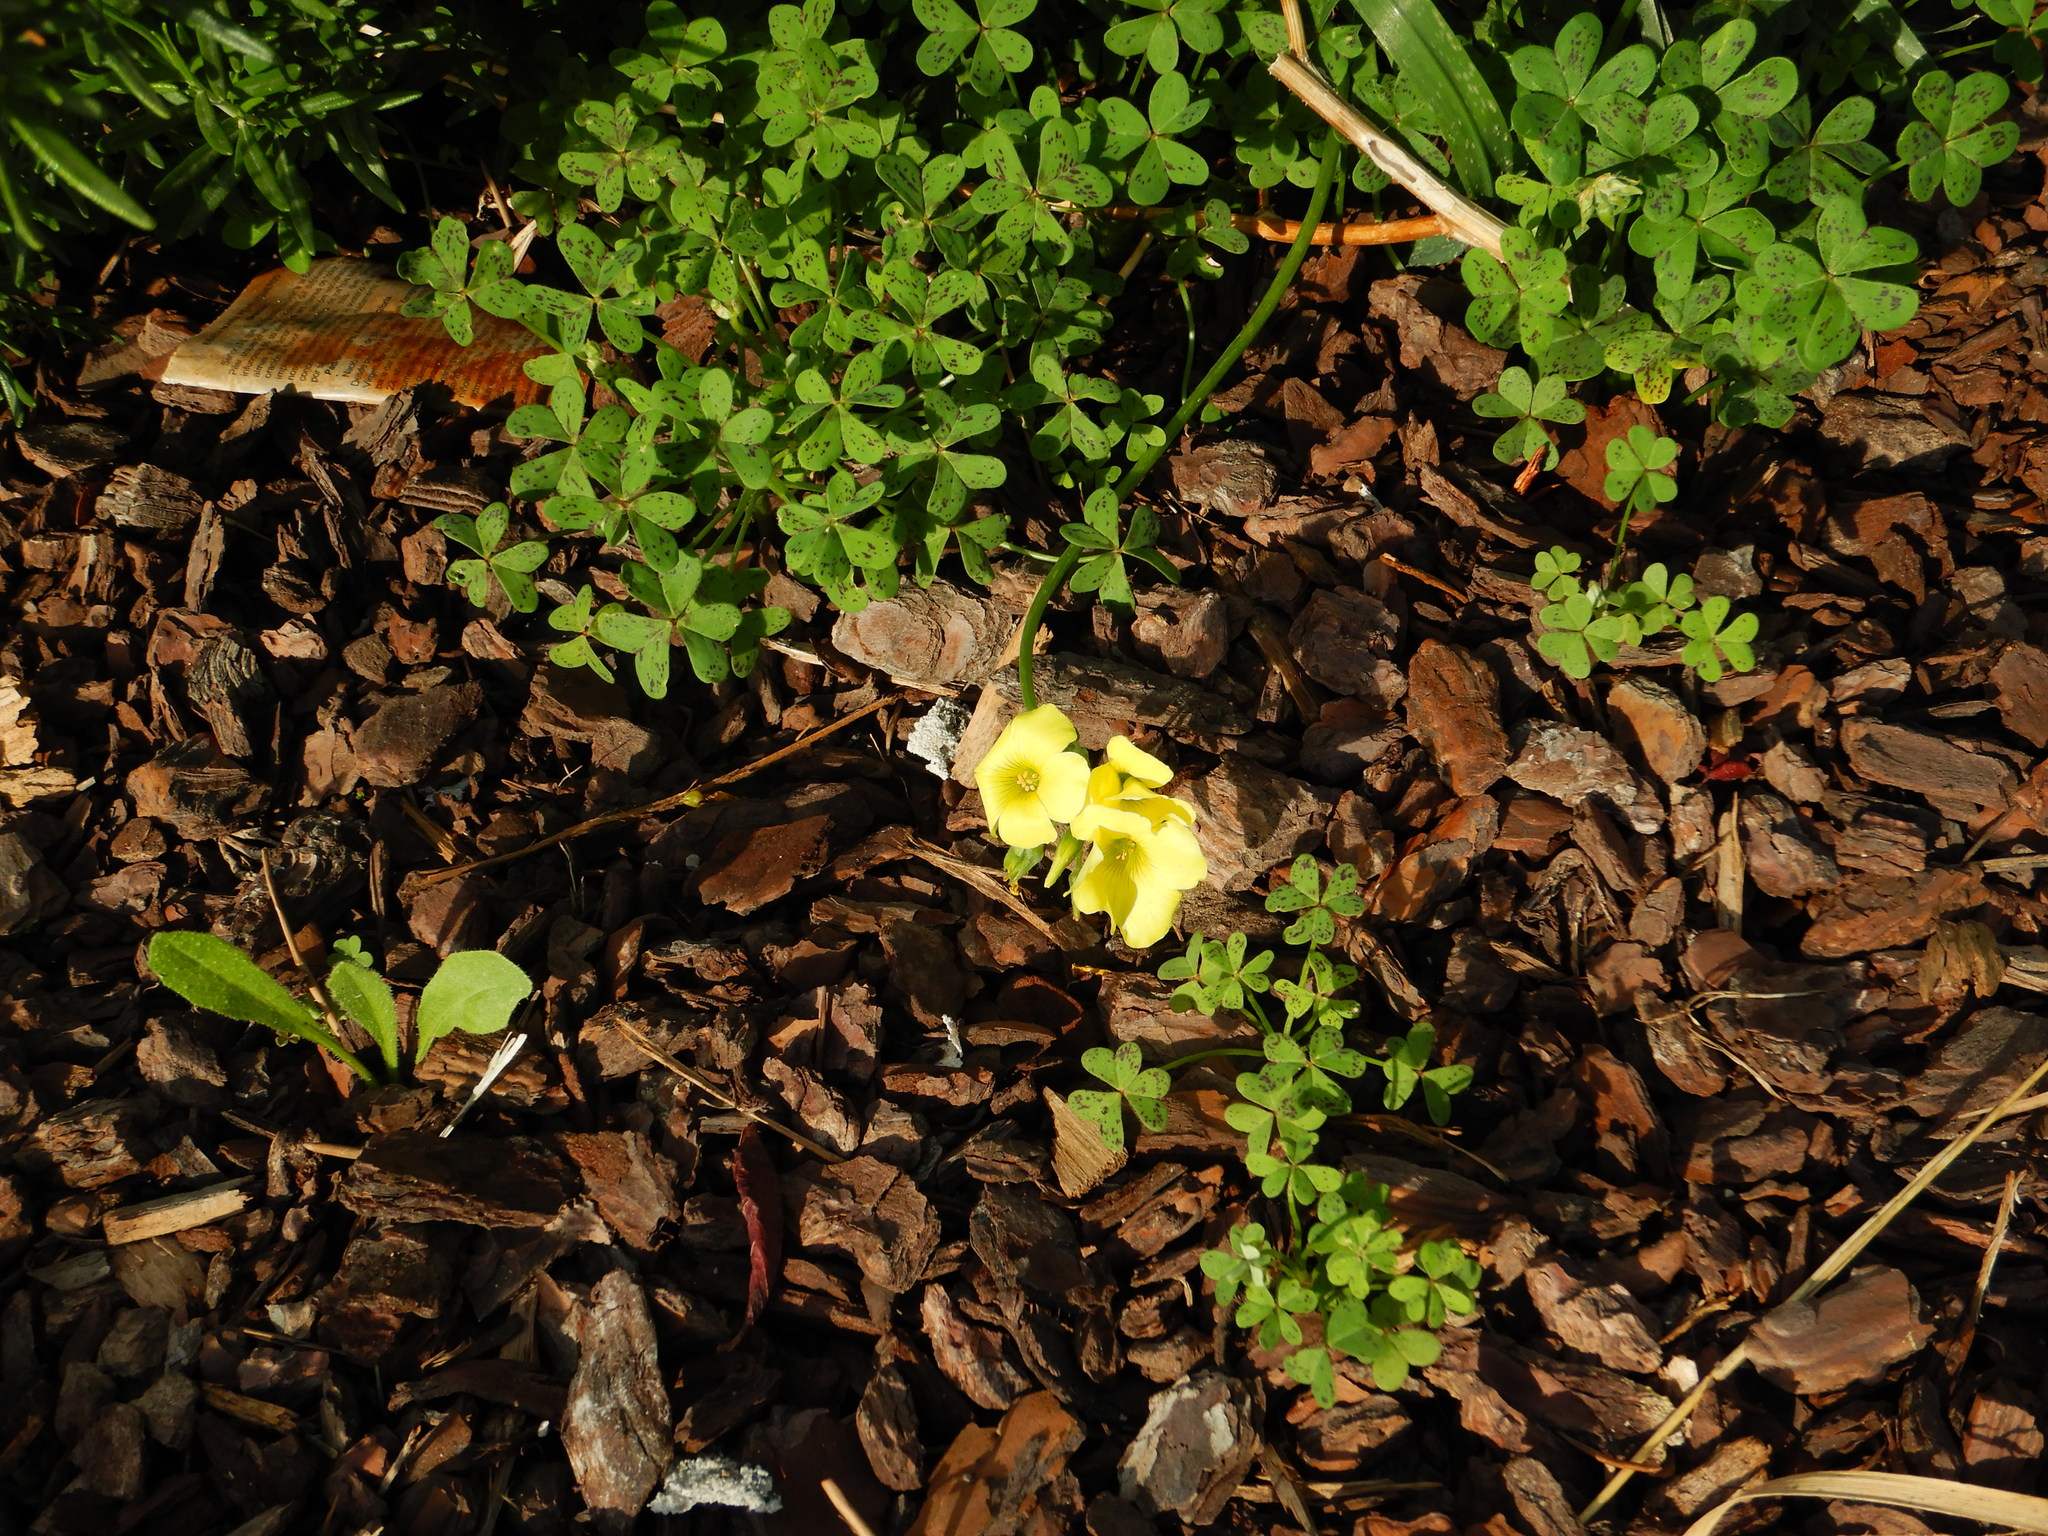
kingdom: Plantae
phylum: Tracheophyta
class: Magnoliopsida
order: Oxalidales
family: Oxalidaceae
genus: Oxalis
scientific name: Oxalis pes-caprae
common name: Bermuda-buttercup
